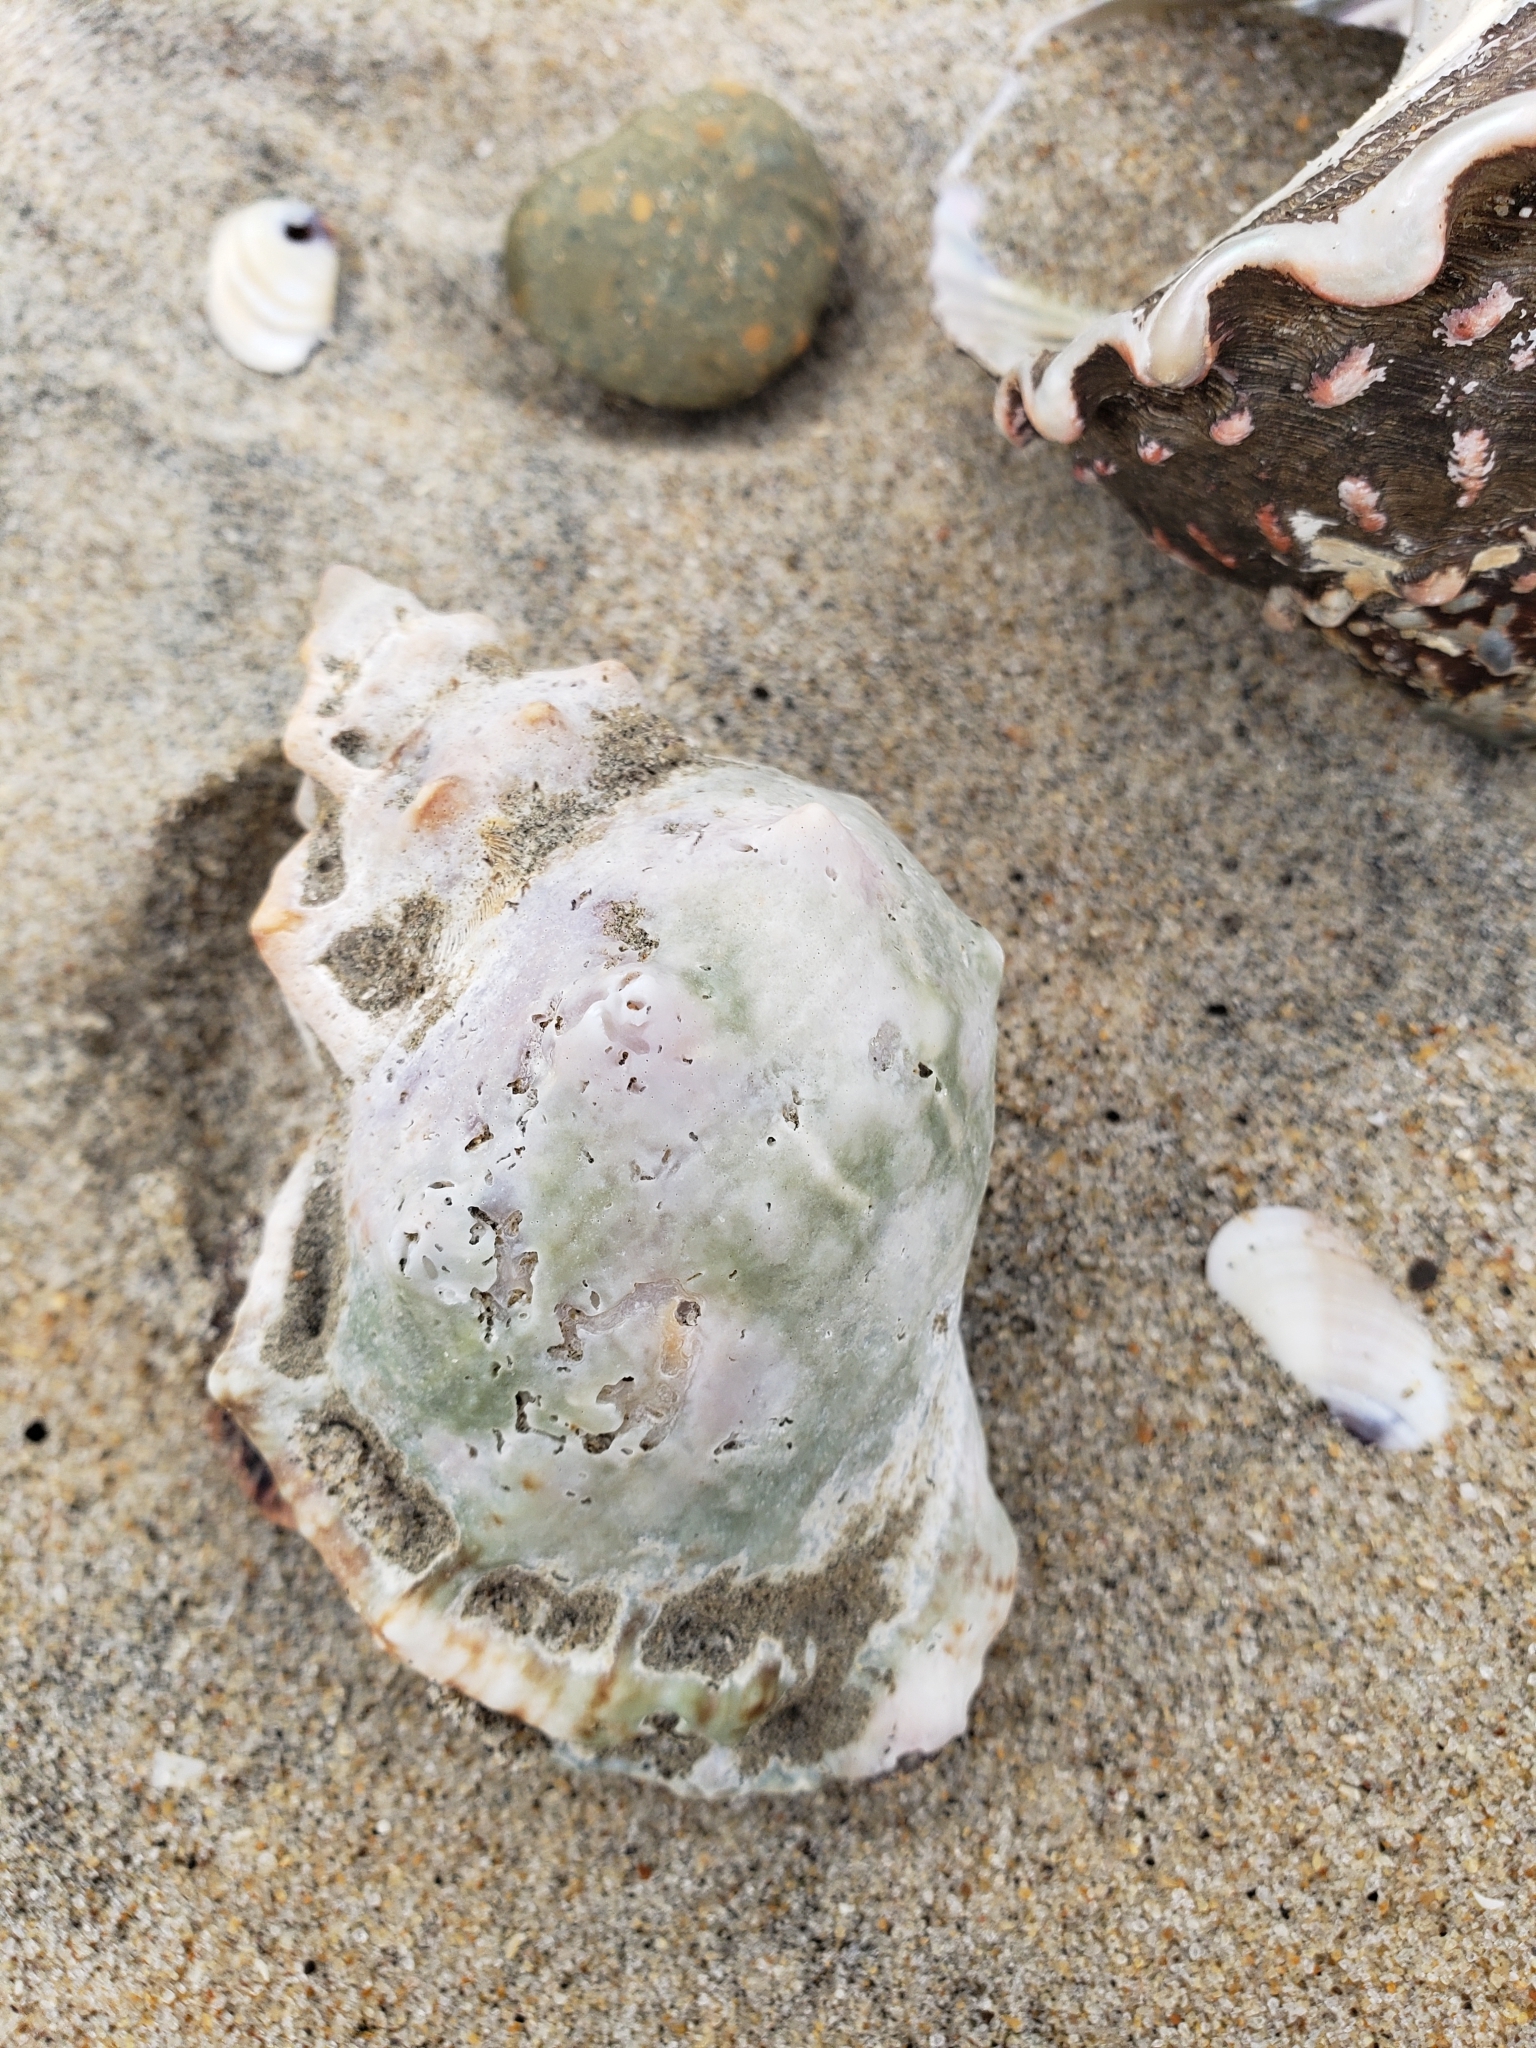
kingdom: Animalia
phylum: Mollusca
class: Gastropoda
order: Littorinimorpha
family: Bursidae
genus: Crossata
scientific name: Crossata californica
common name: California frogsnail
